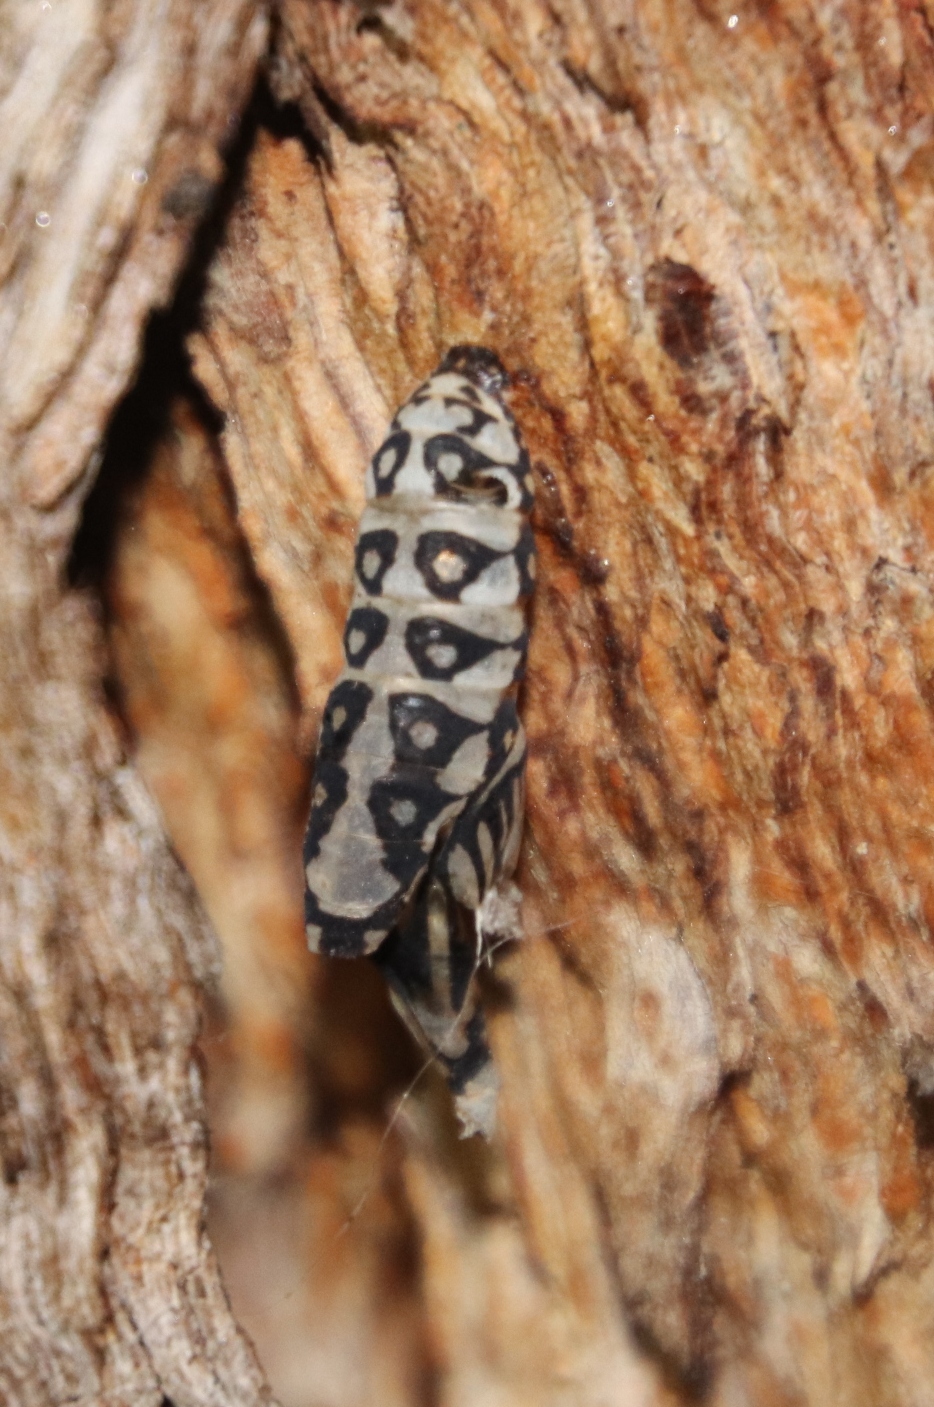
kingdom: Animalia
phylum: Arthropoda
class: Insecta
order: Lepidoptera
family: Nymphalidae
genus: Acraea
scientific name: Acraea horta
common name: Garden acraea
